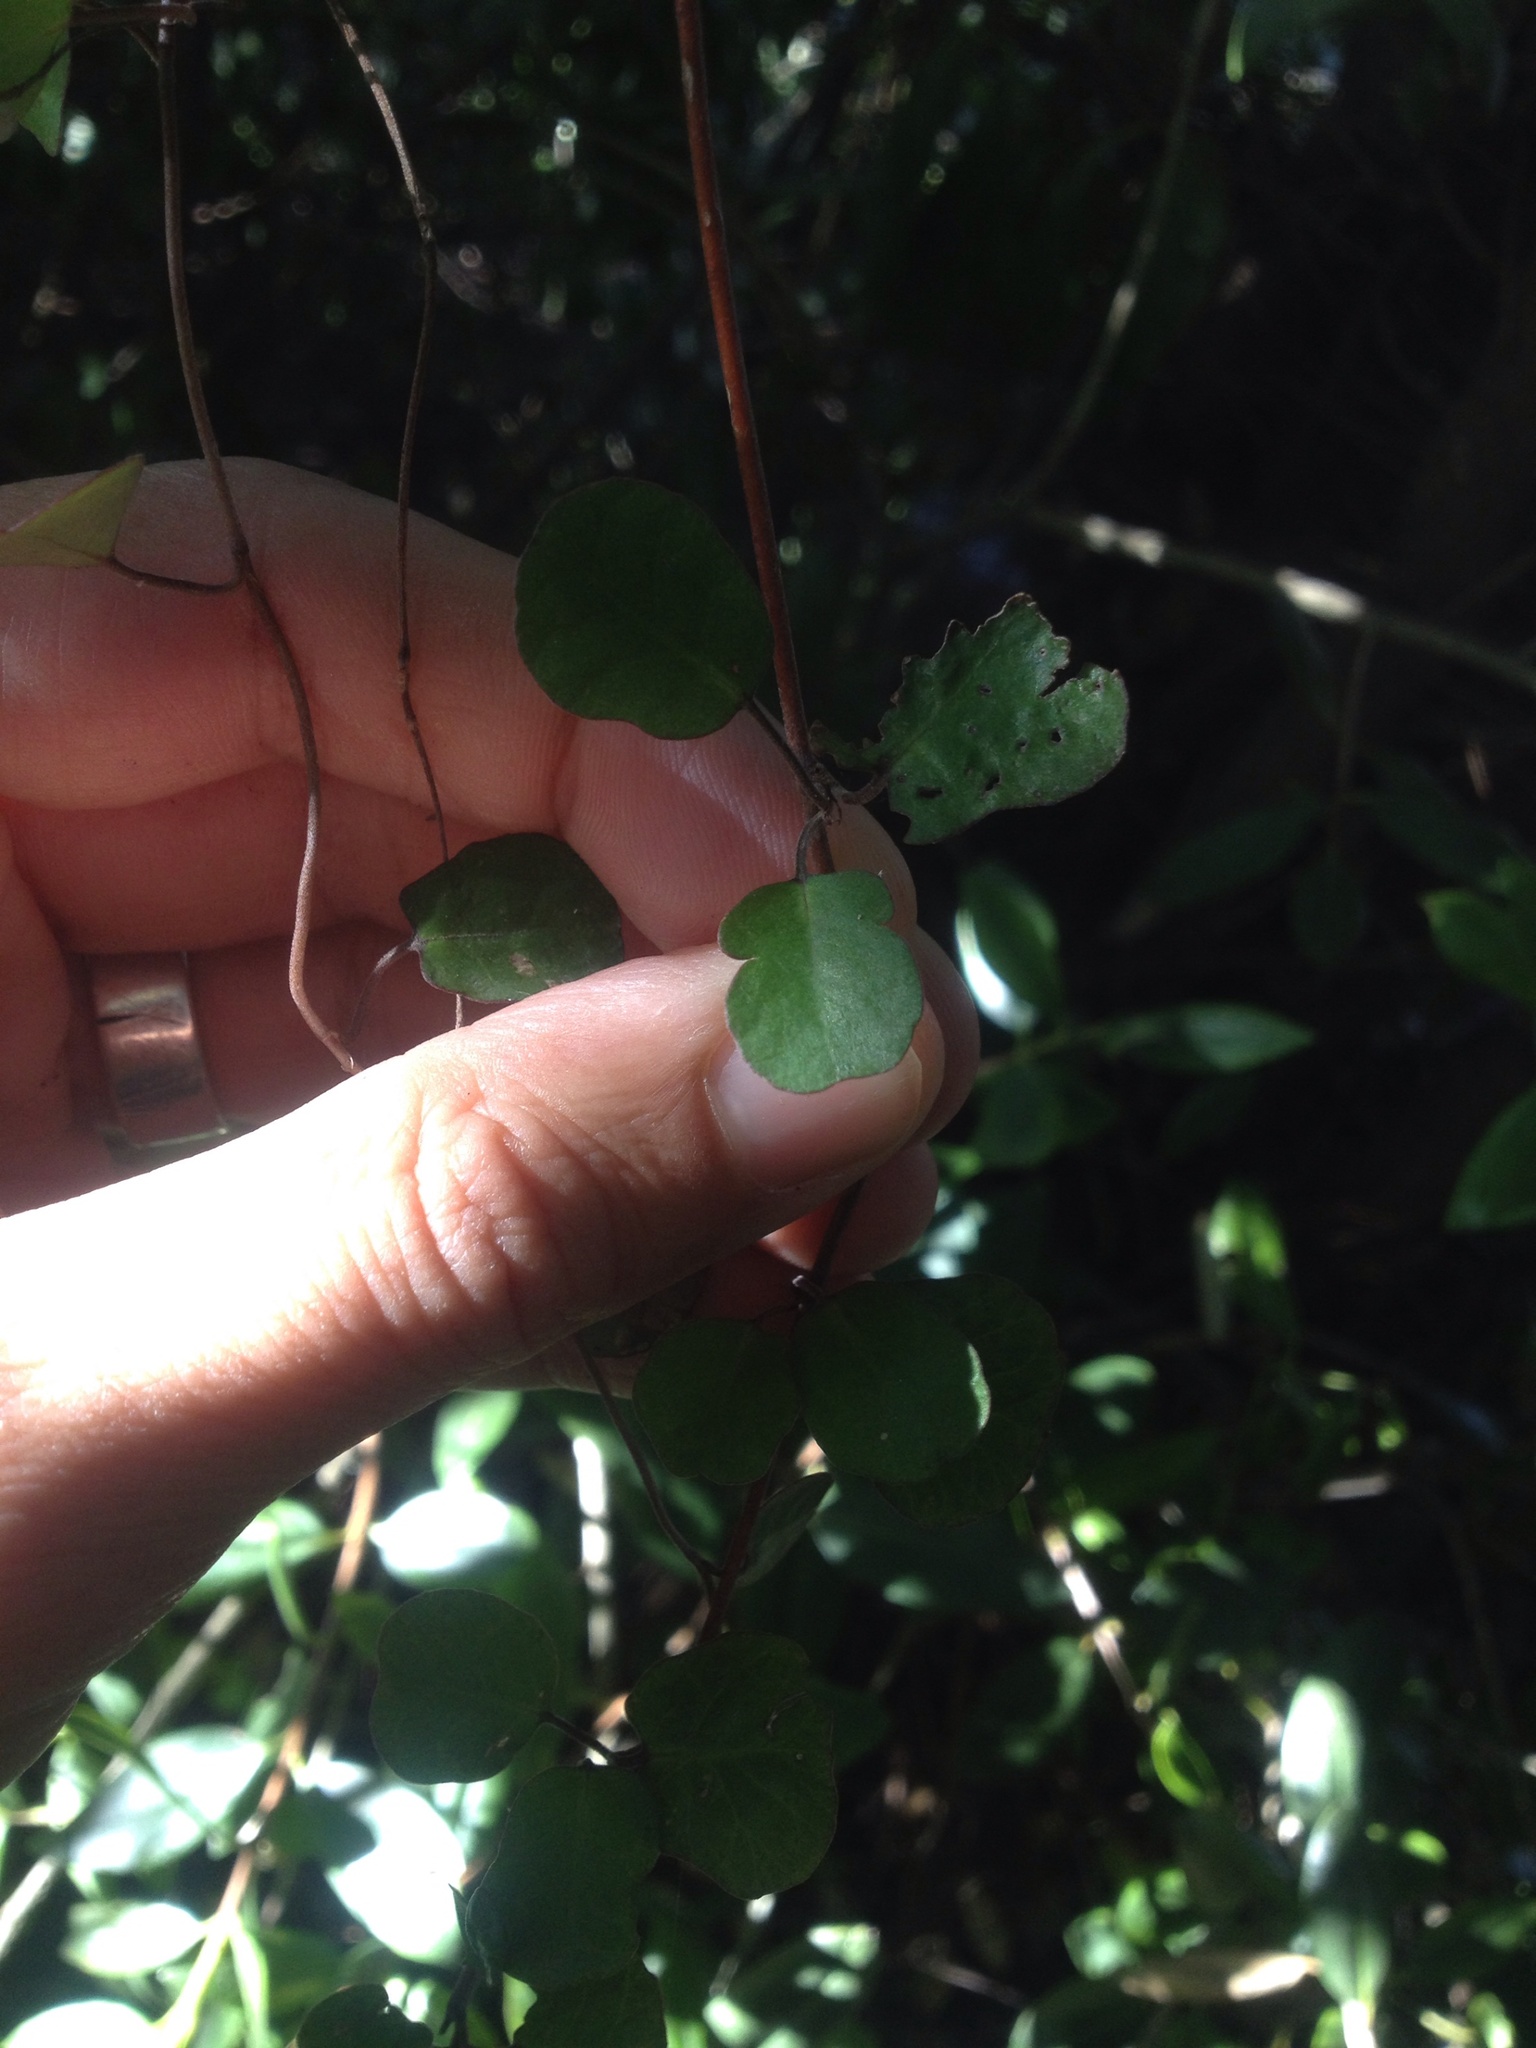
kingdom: Plantae
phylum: Tracheophyta
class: Magnoliopsida
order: Caryophyllales
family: Polygonaceae
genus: Muehlenbeckia
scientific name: Muehlenbeckia
